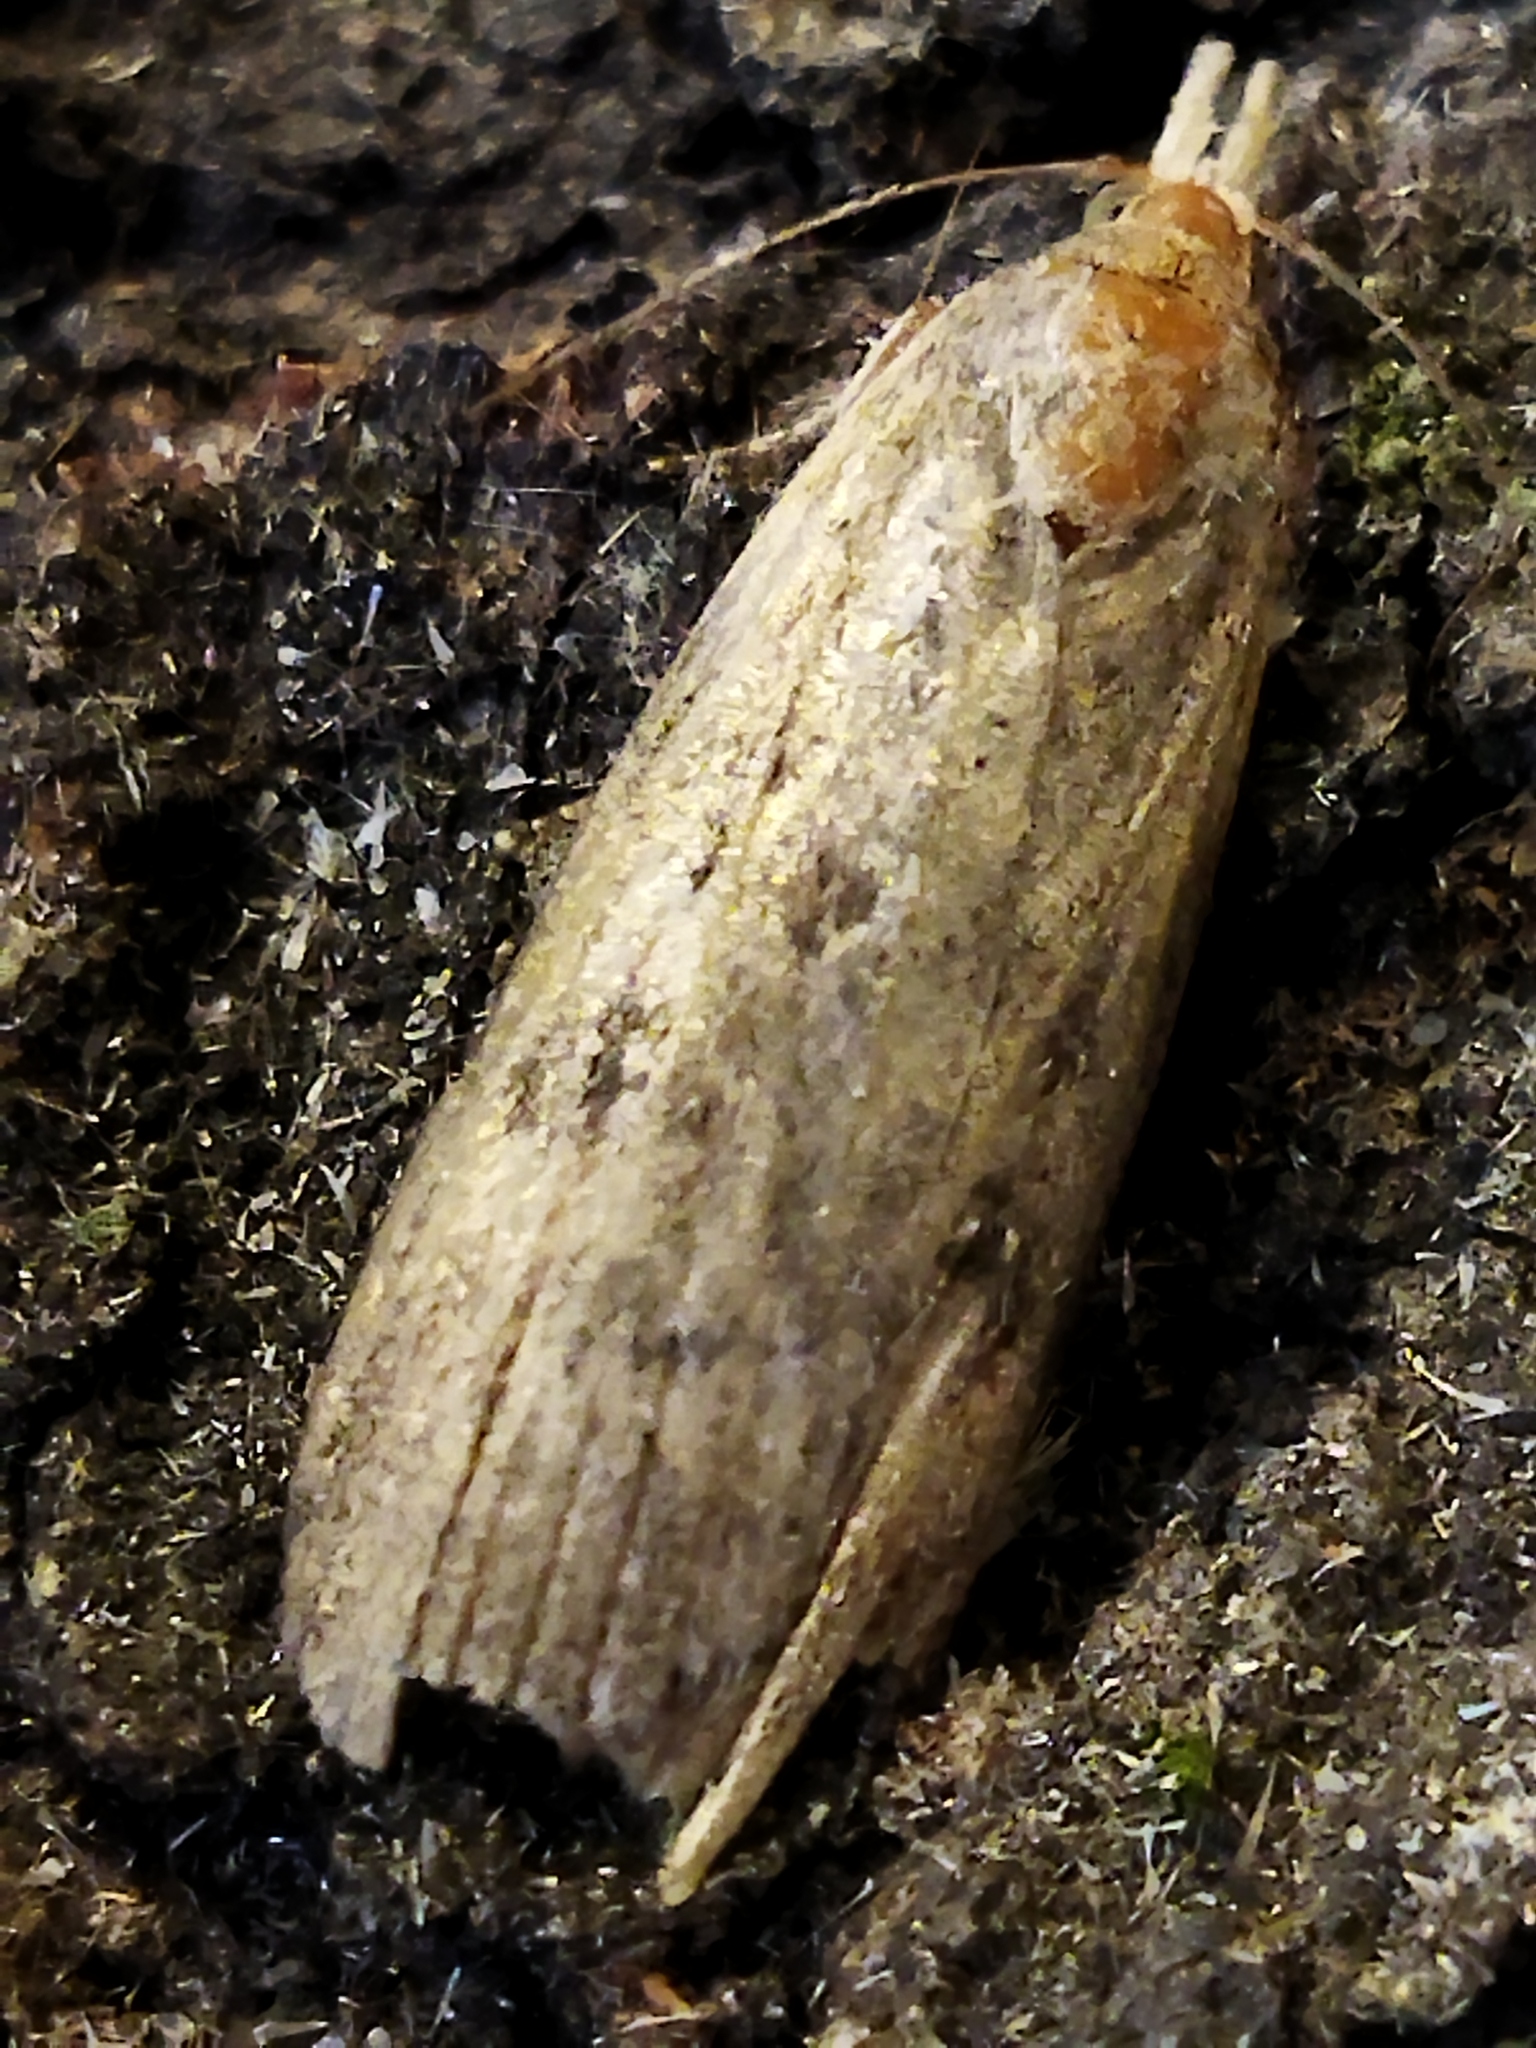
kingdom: Animalia
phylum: Arthropoda
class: Insecta
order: Lepidoptera
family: Pyralidae
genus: Lamoria
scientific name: Lamoria
